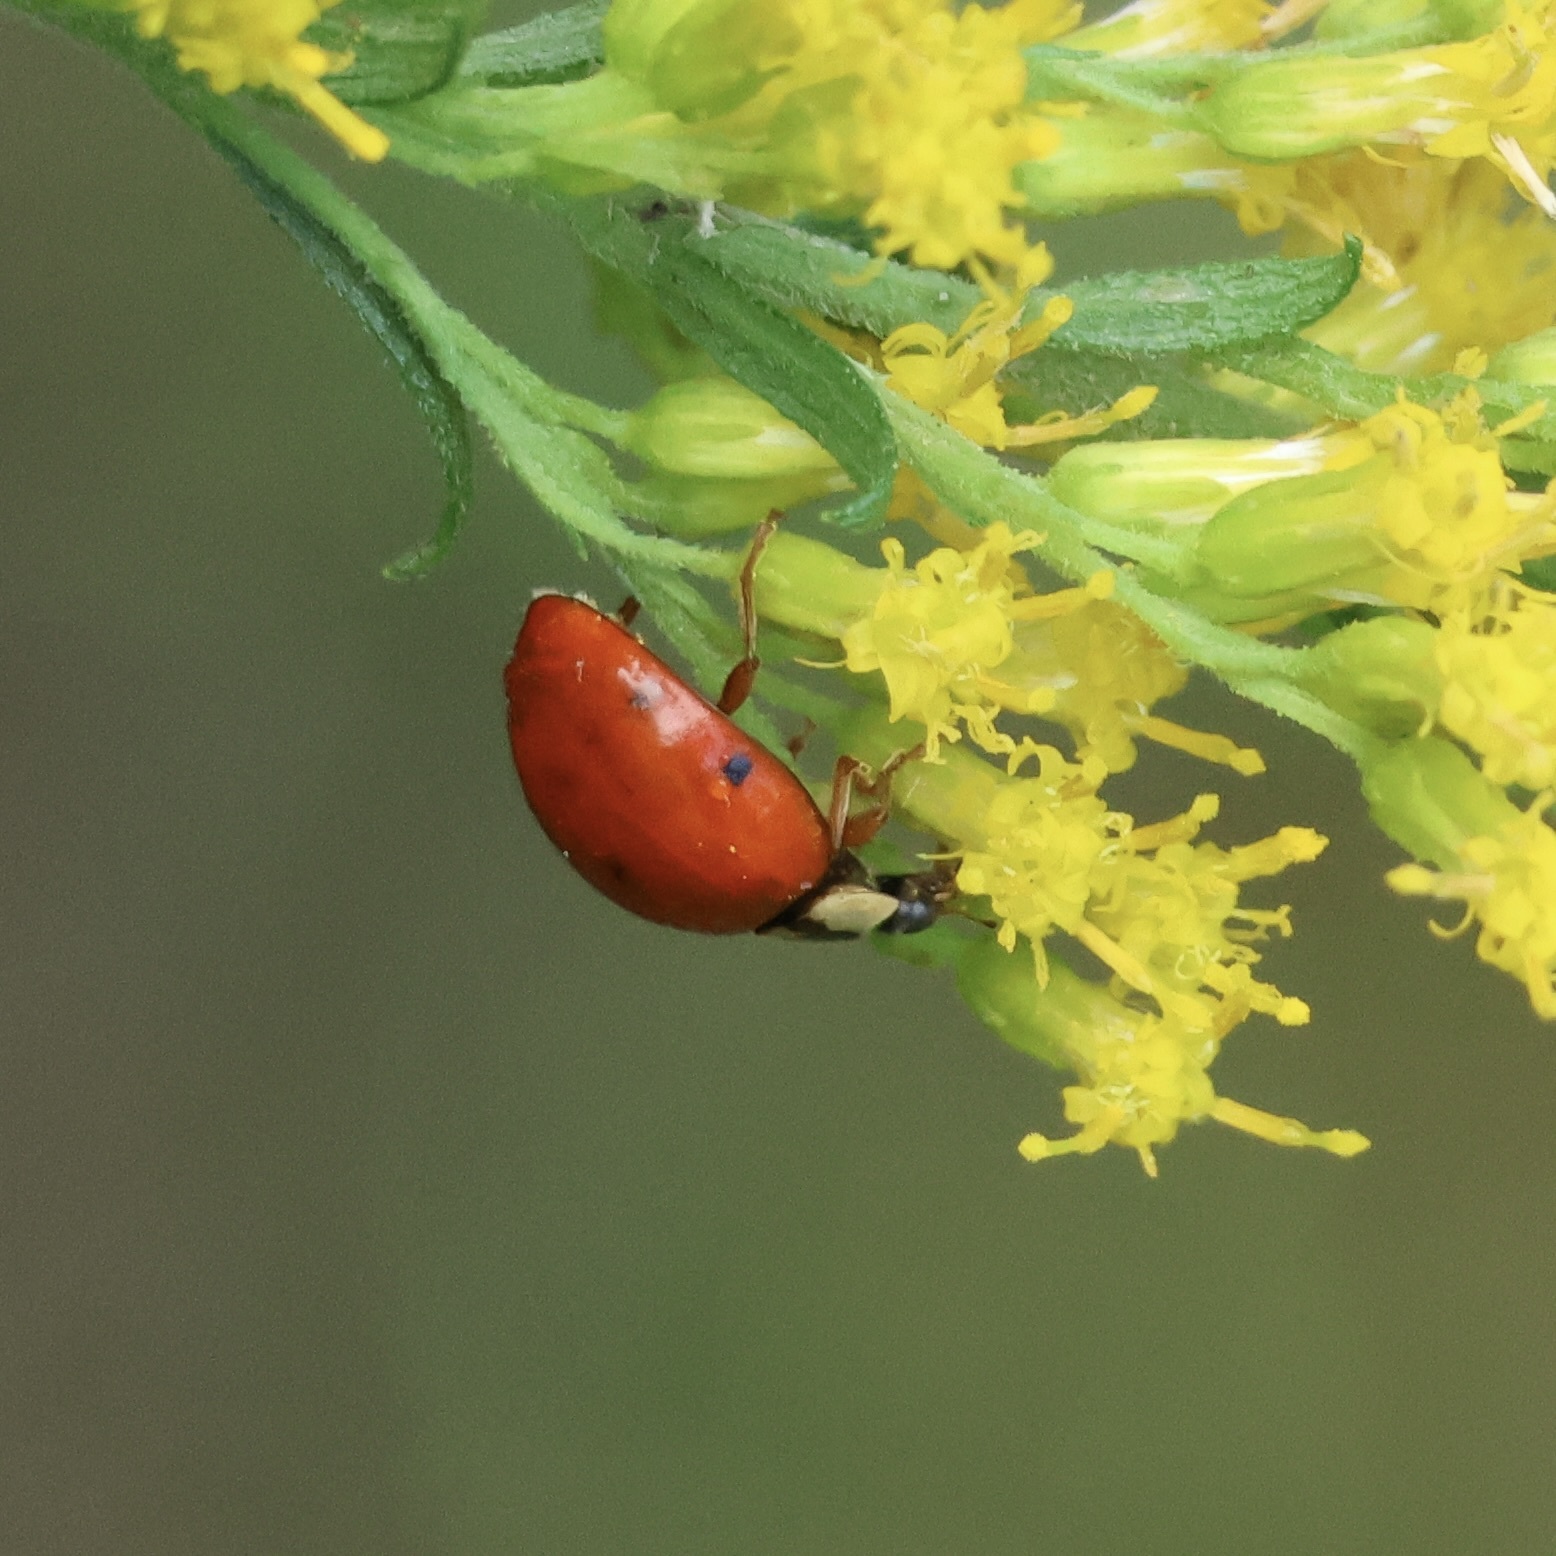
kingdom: Animalia
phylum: Arthropoda
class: Insecta
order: Coleoptera
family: Coccinellidae
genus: Harmonia
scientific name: Harmonia axyridis
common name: Harlequin ladybird
